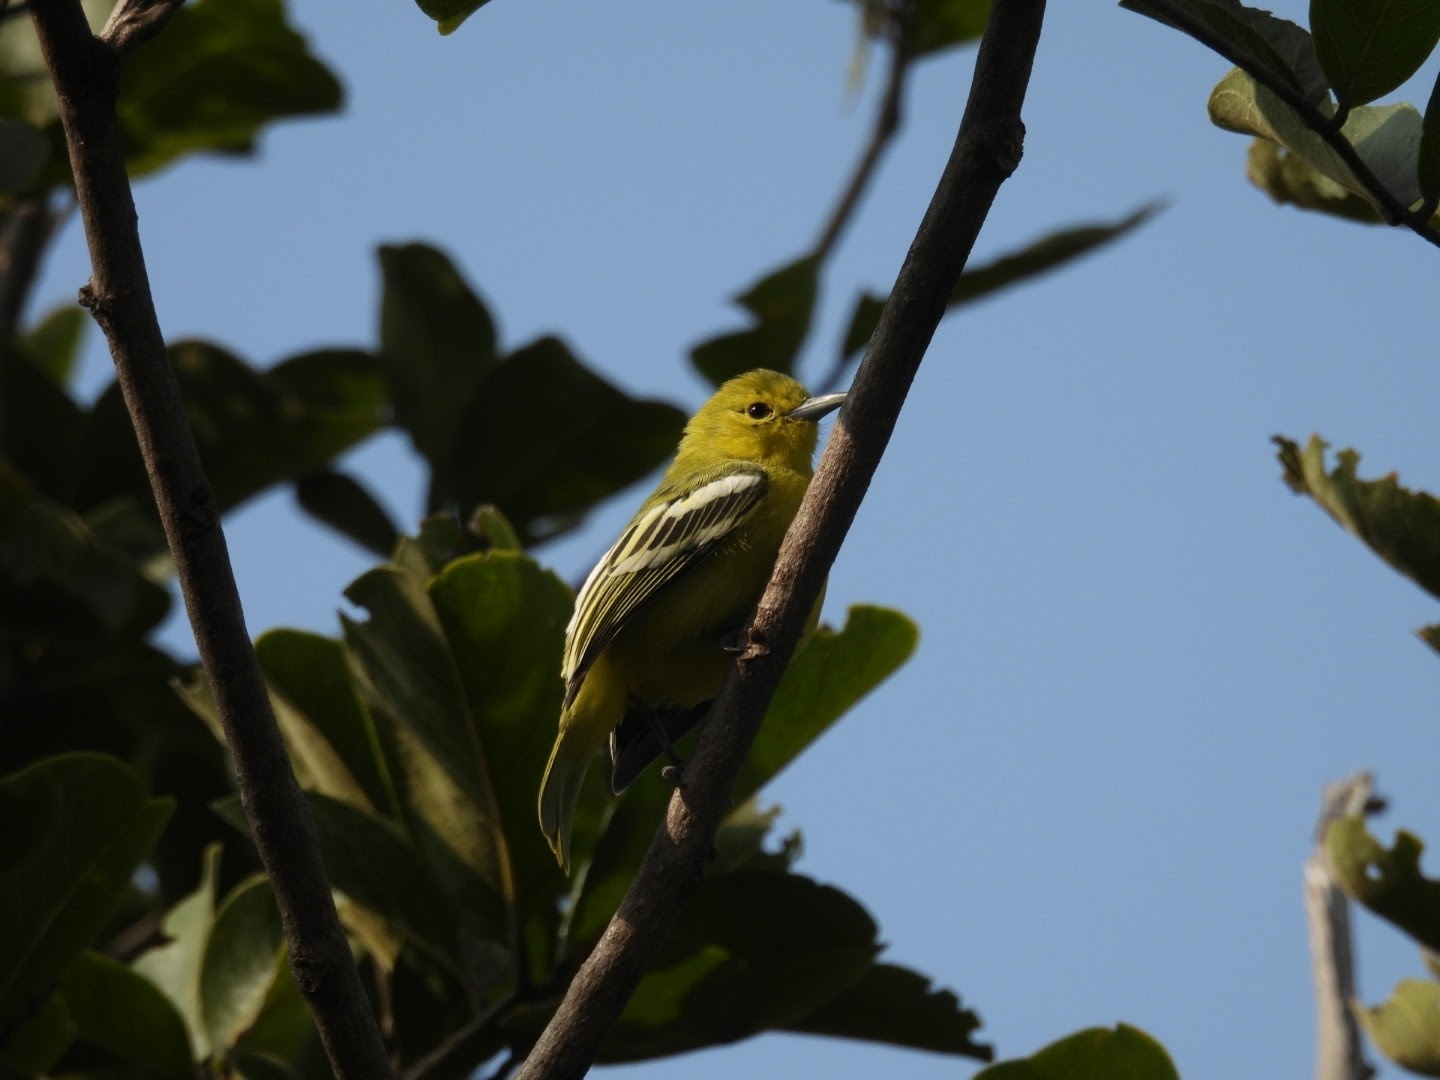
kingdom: Animalia
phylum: Chordata
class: Aves
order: Passeriformes
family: Aegithinidae
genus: Aegithina
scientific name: Aegithina tiphia
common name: Common iora
